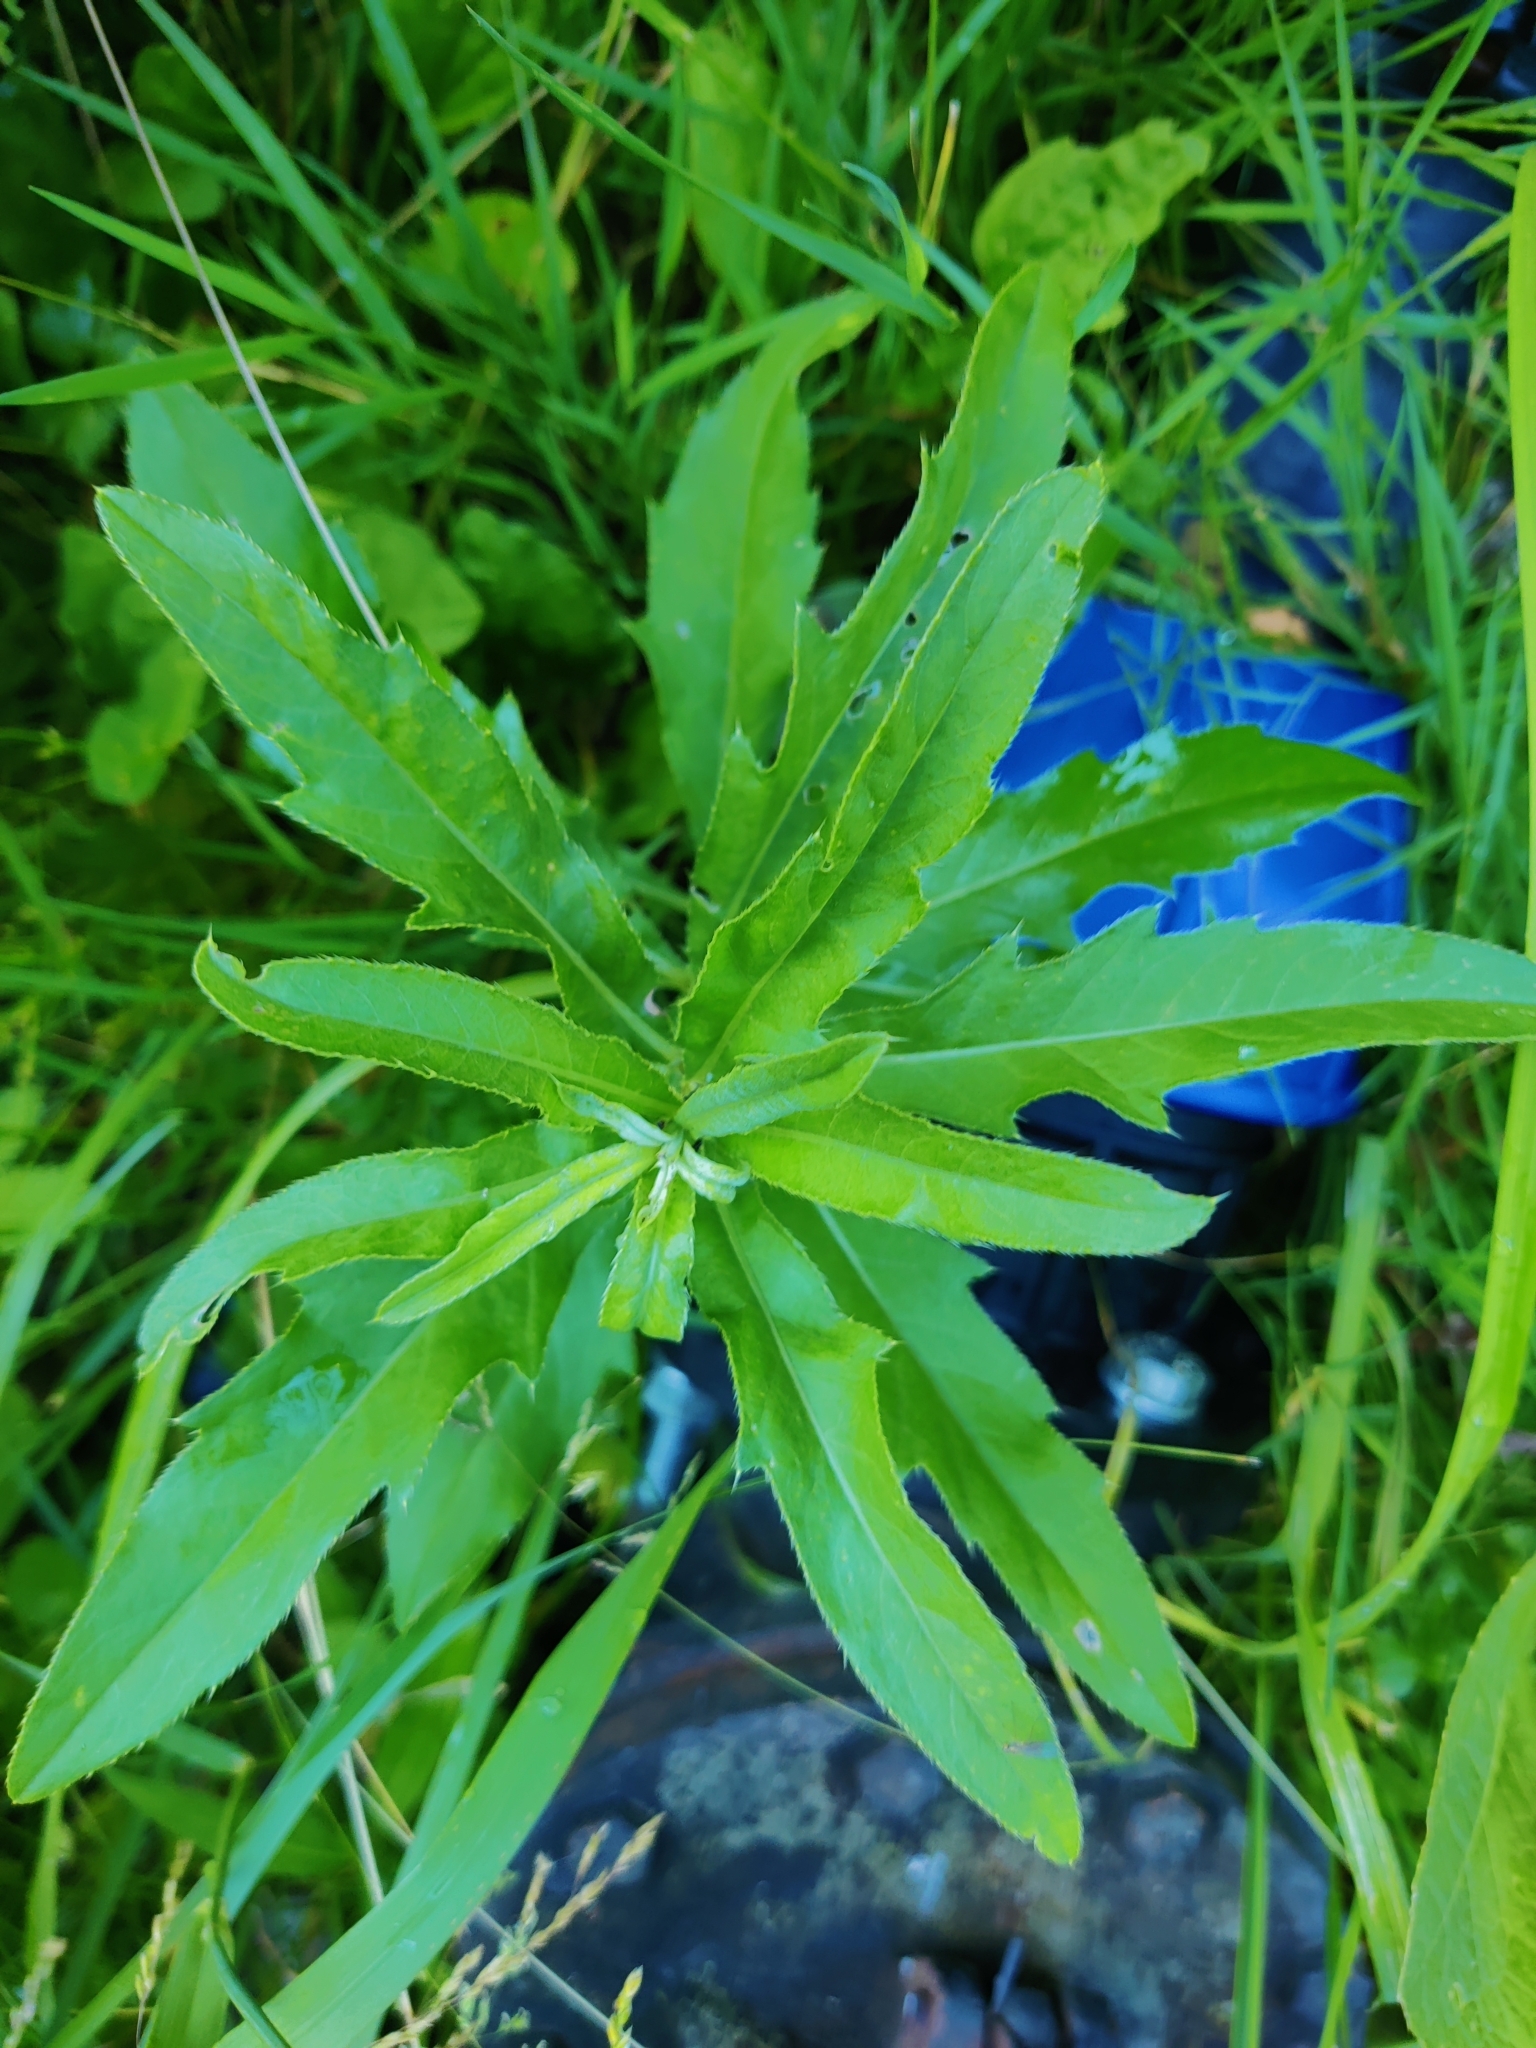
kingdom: Plantae
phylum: Tracheophyta
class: Magnoliopsida
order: Asterales
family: Asteraceae
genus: Cirsium
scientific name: Cirsium arvense
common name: Creeping thistle
